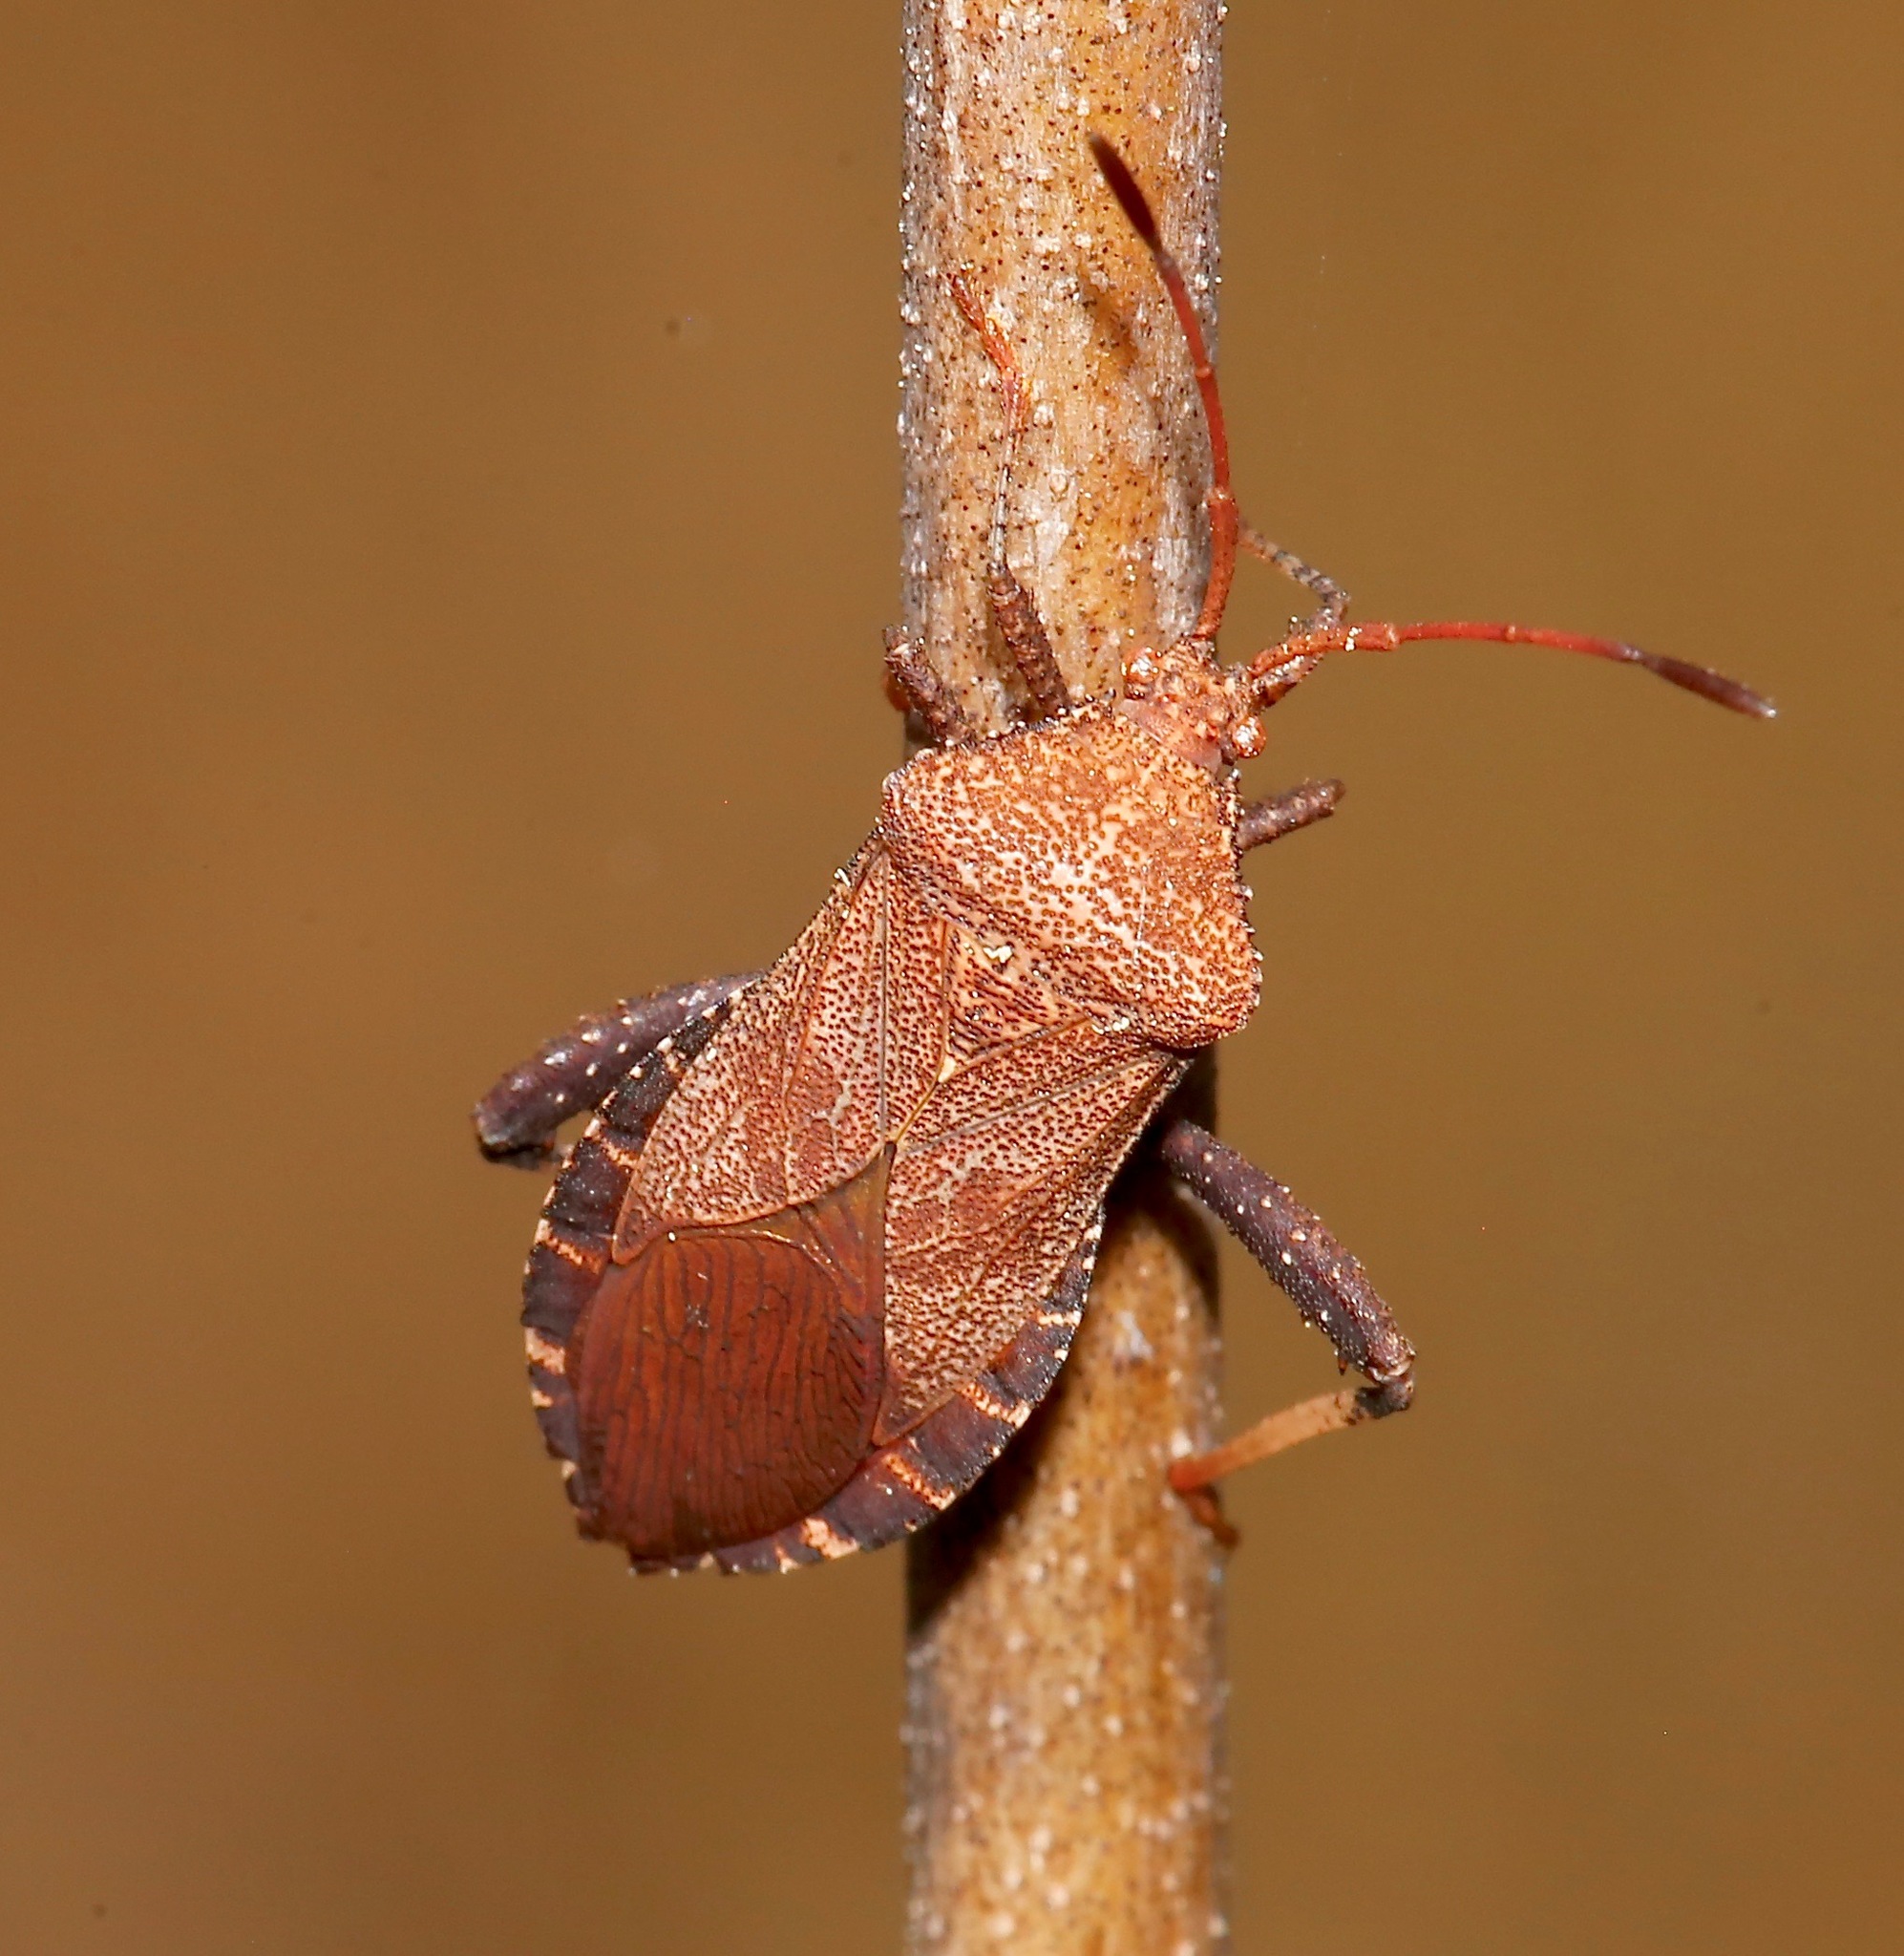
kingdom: Animalia
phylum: Arthropoda
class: Insecta
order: Hemiptera
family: Coreidae
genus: Euthochtha
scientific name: Euthochtha galeator
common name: Helmeted squash bug
